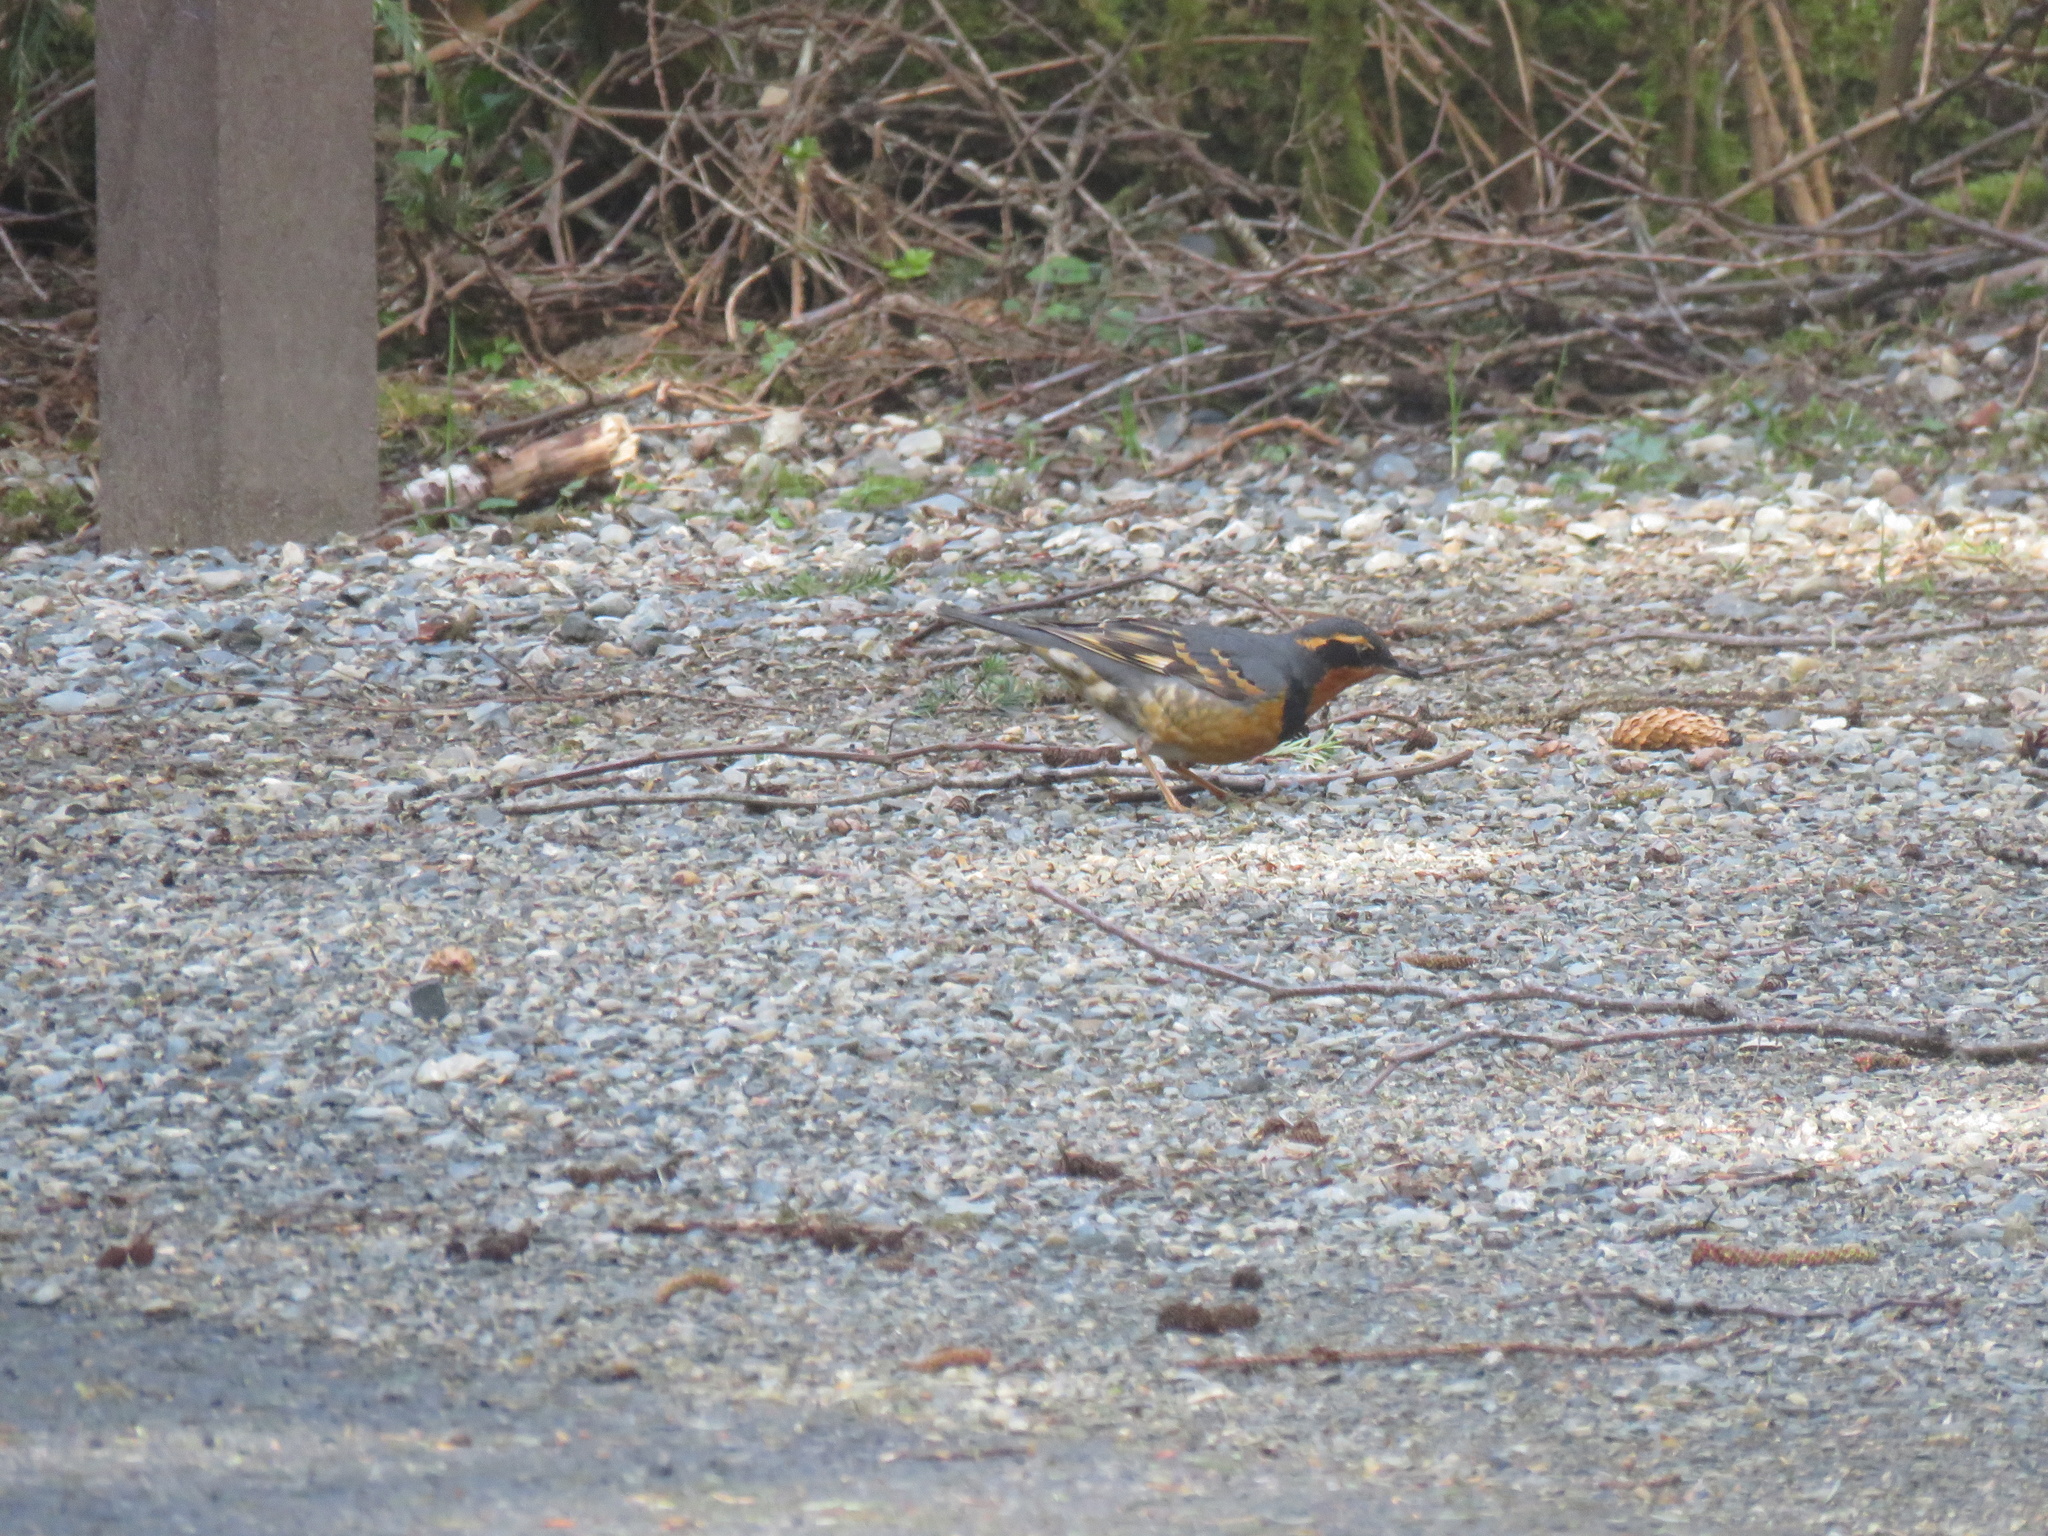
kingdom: Animalia
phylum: Chordata
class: Aves
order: Passeriformes
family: Turdidae
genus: Ixoreus
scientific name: Ixoreus naevius
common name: Varied thrush
